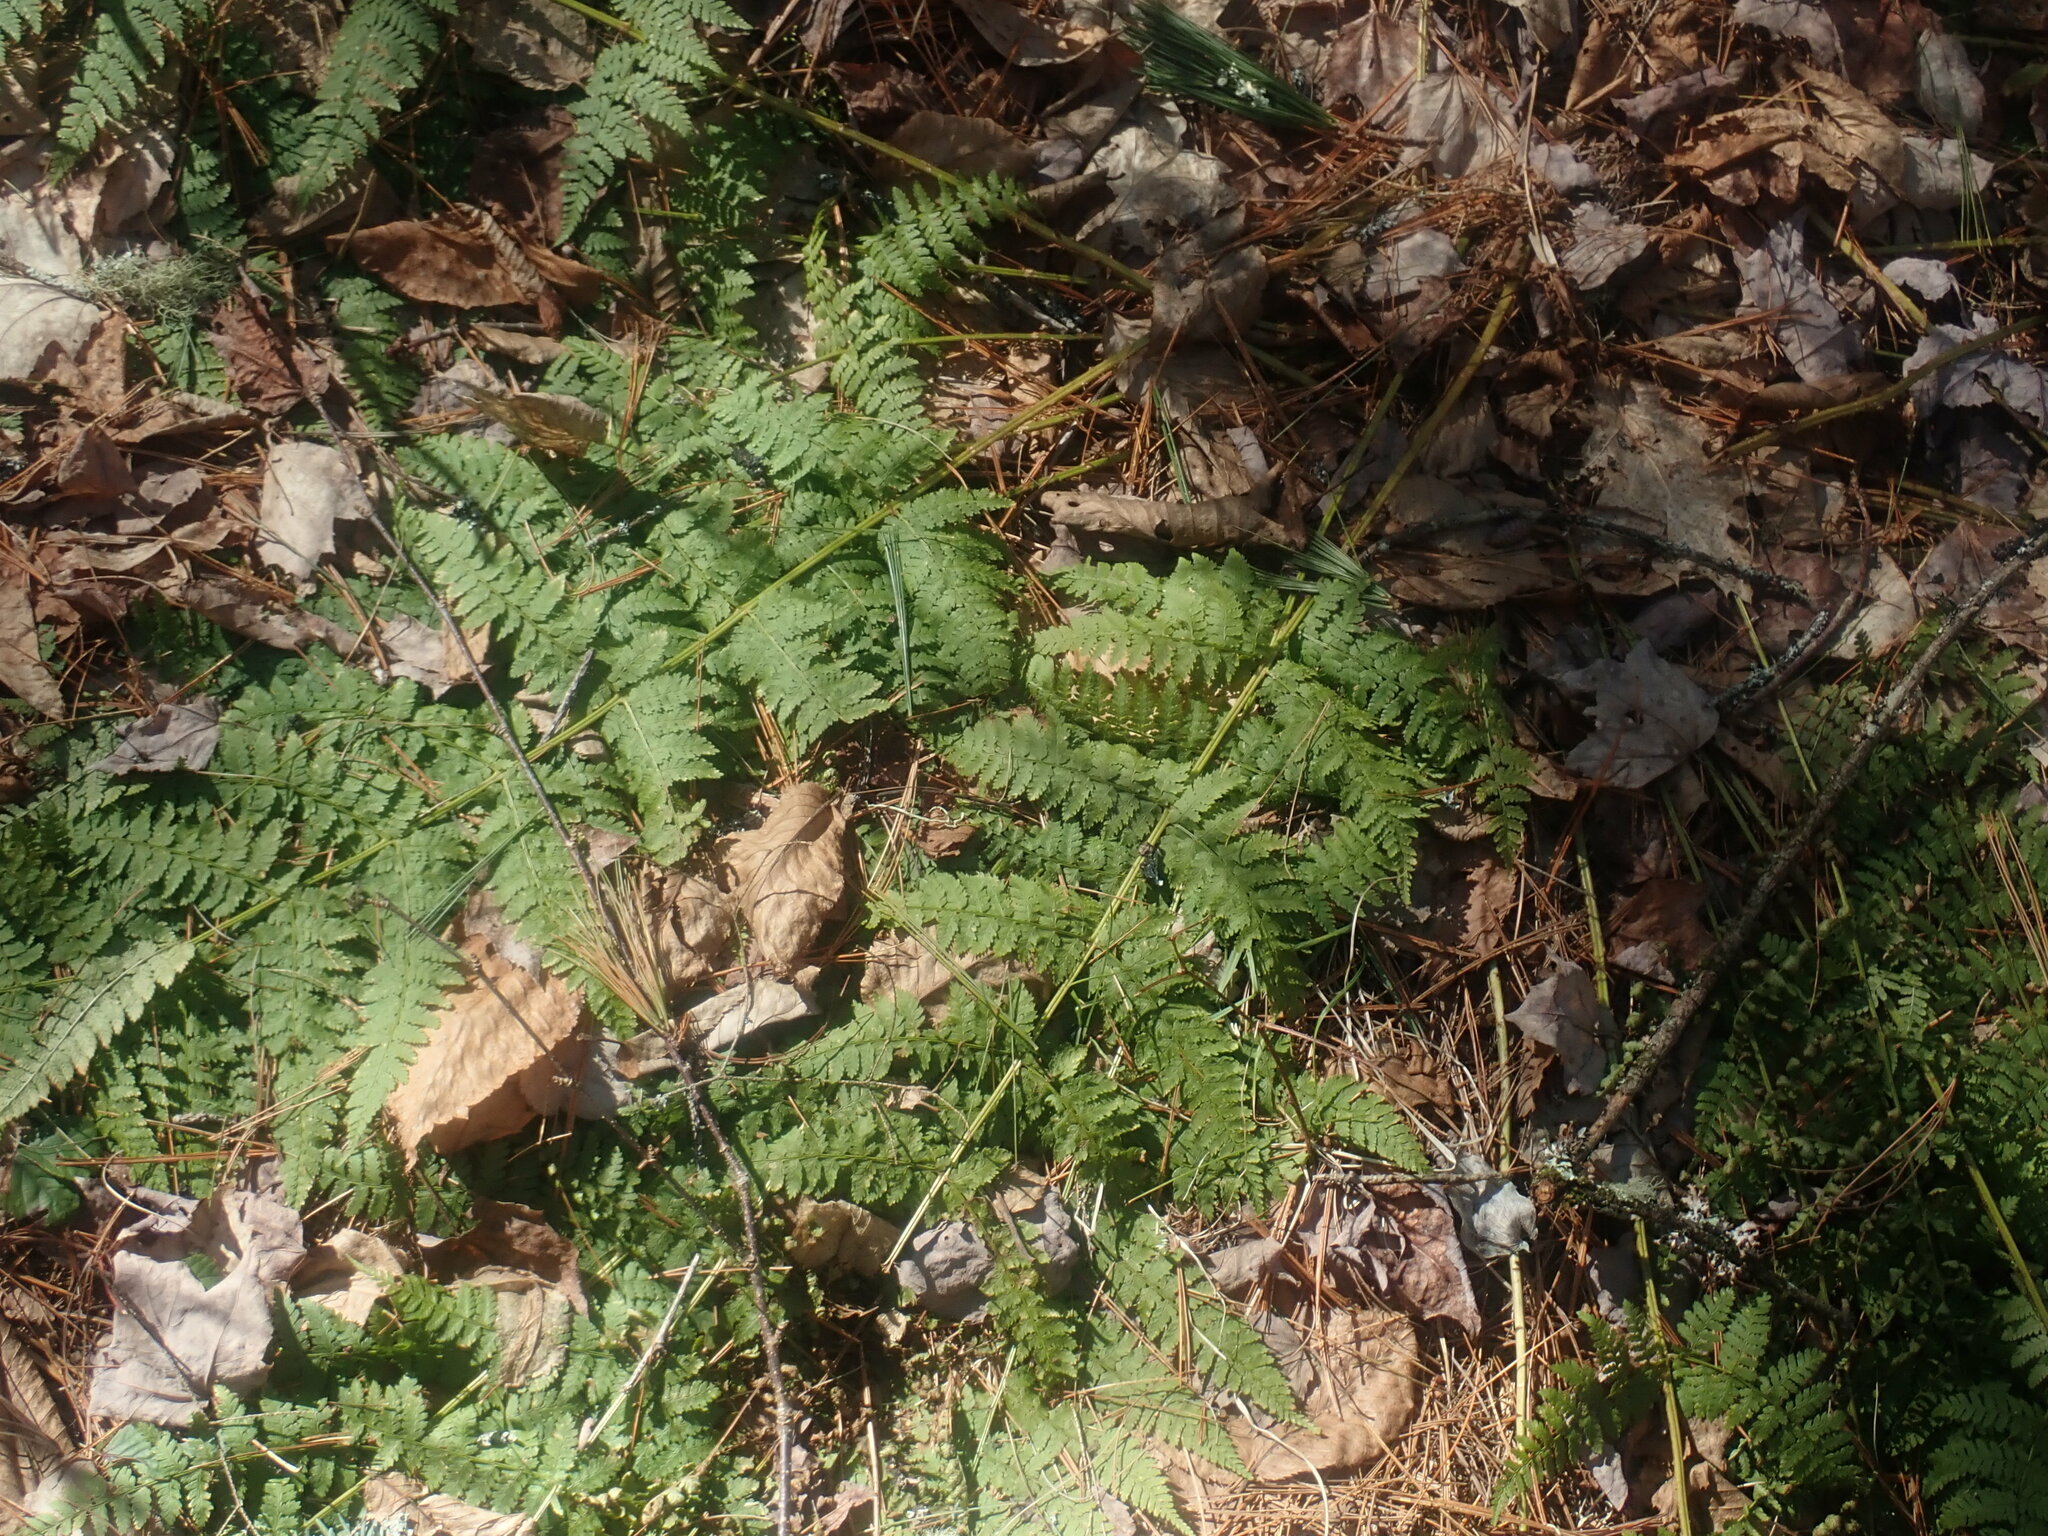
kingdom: Plantae
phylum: Tracheophyta
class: Polypodiopsida
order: Polypodiales
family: Dryopteridaceae
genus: Dryopteris
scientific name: Dryopteris intermedia
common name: Evergreen wood fern
